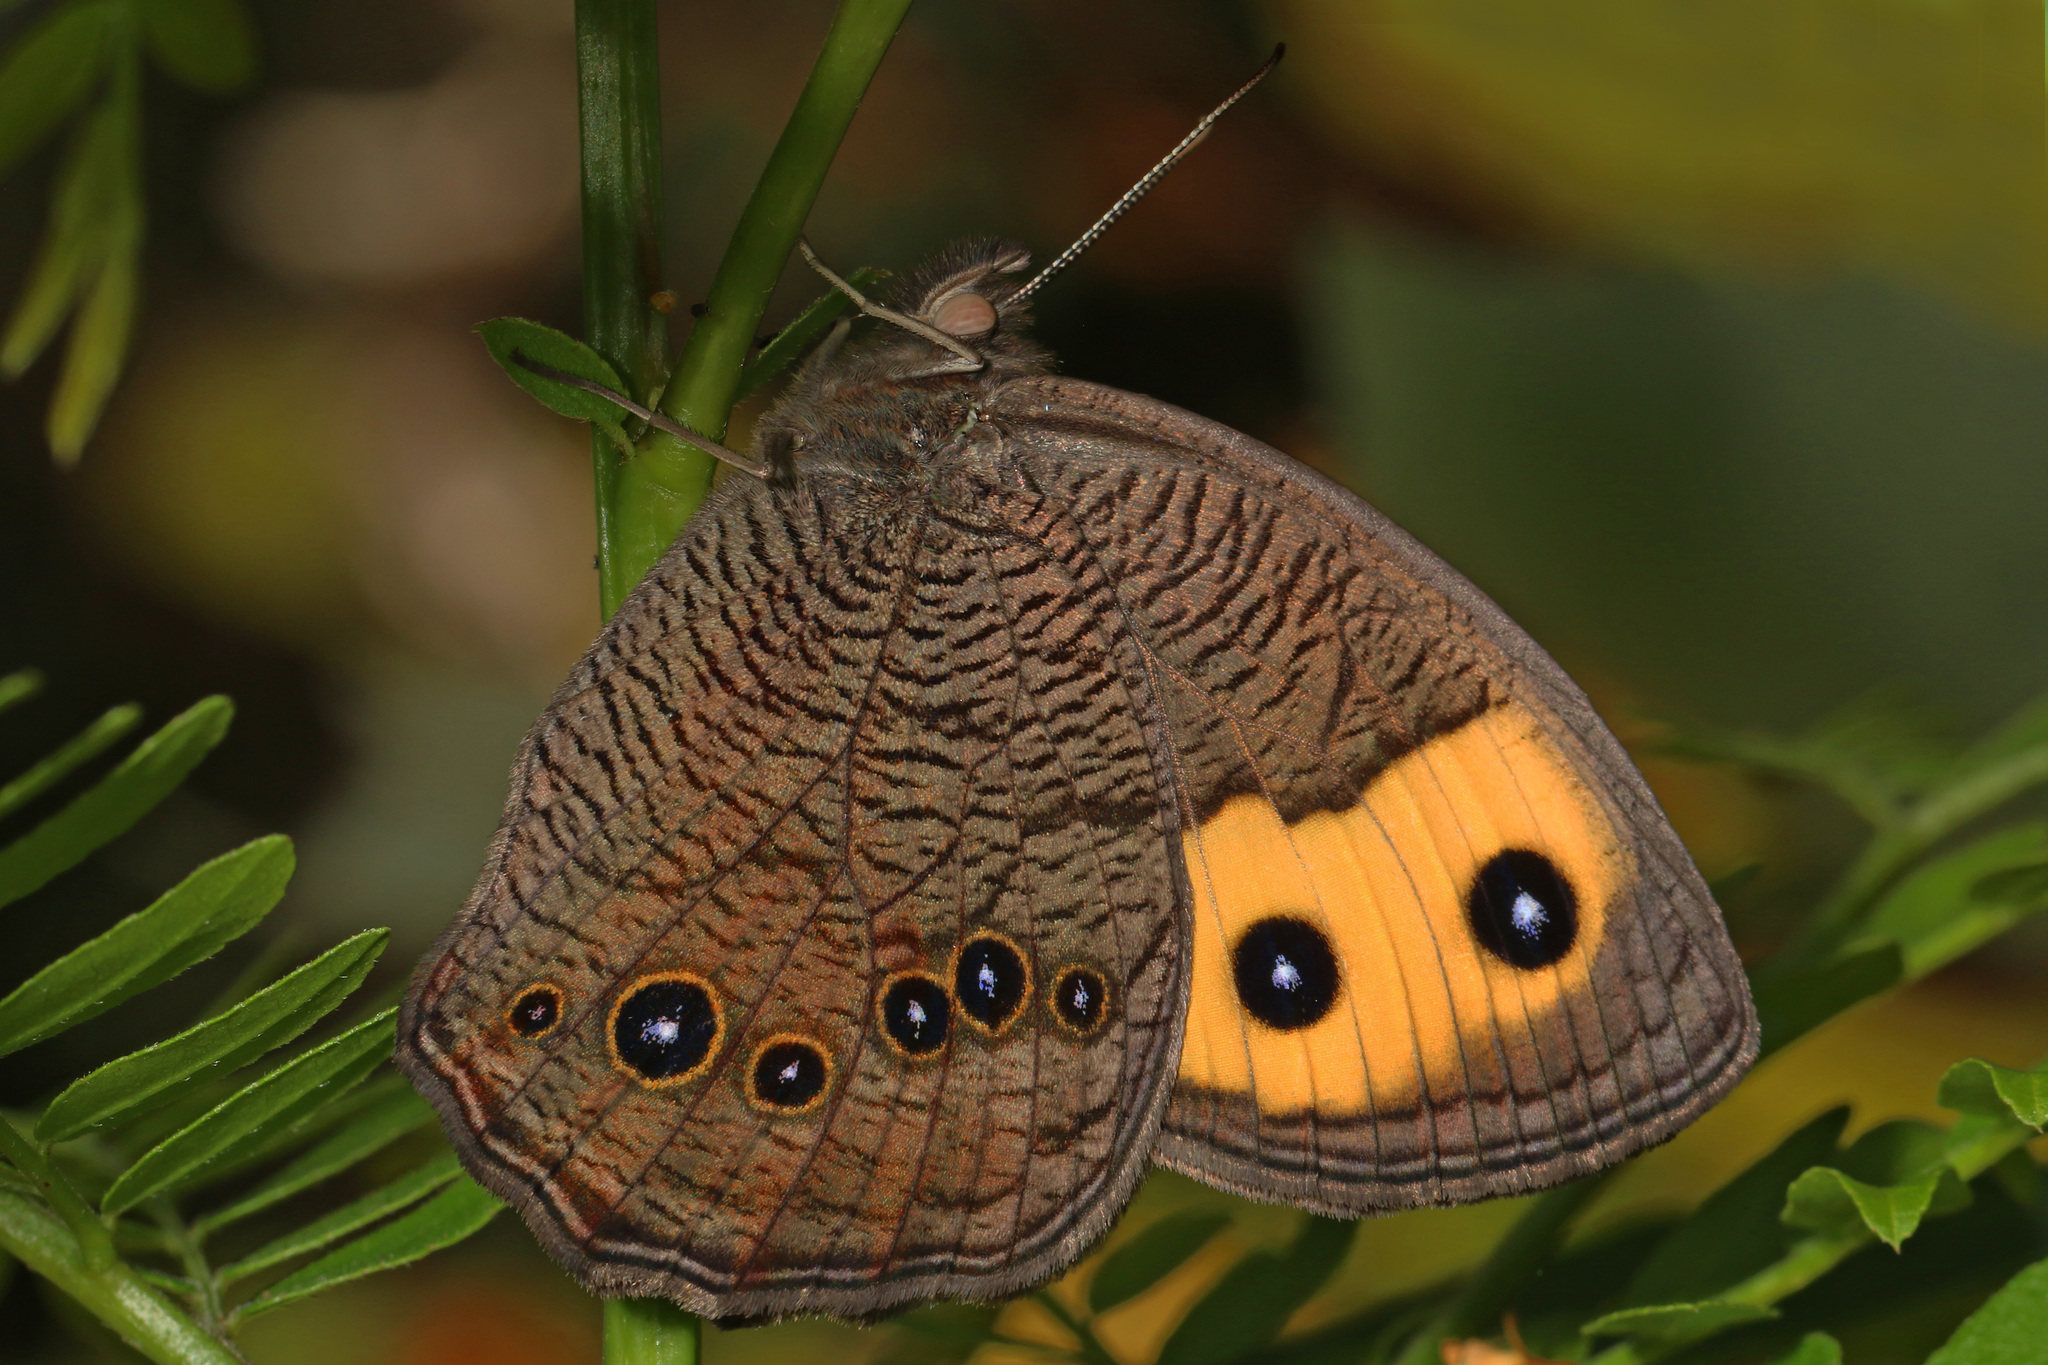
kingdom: Animalia
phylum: Arthropoda
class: Insecta
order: Lepidoptera
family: Nymphalidae
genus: Cercyonis
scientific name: Cercyonis pegala
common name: Common wood-nymph
